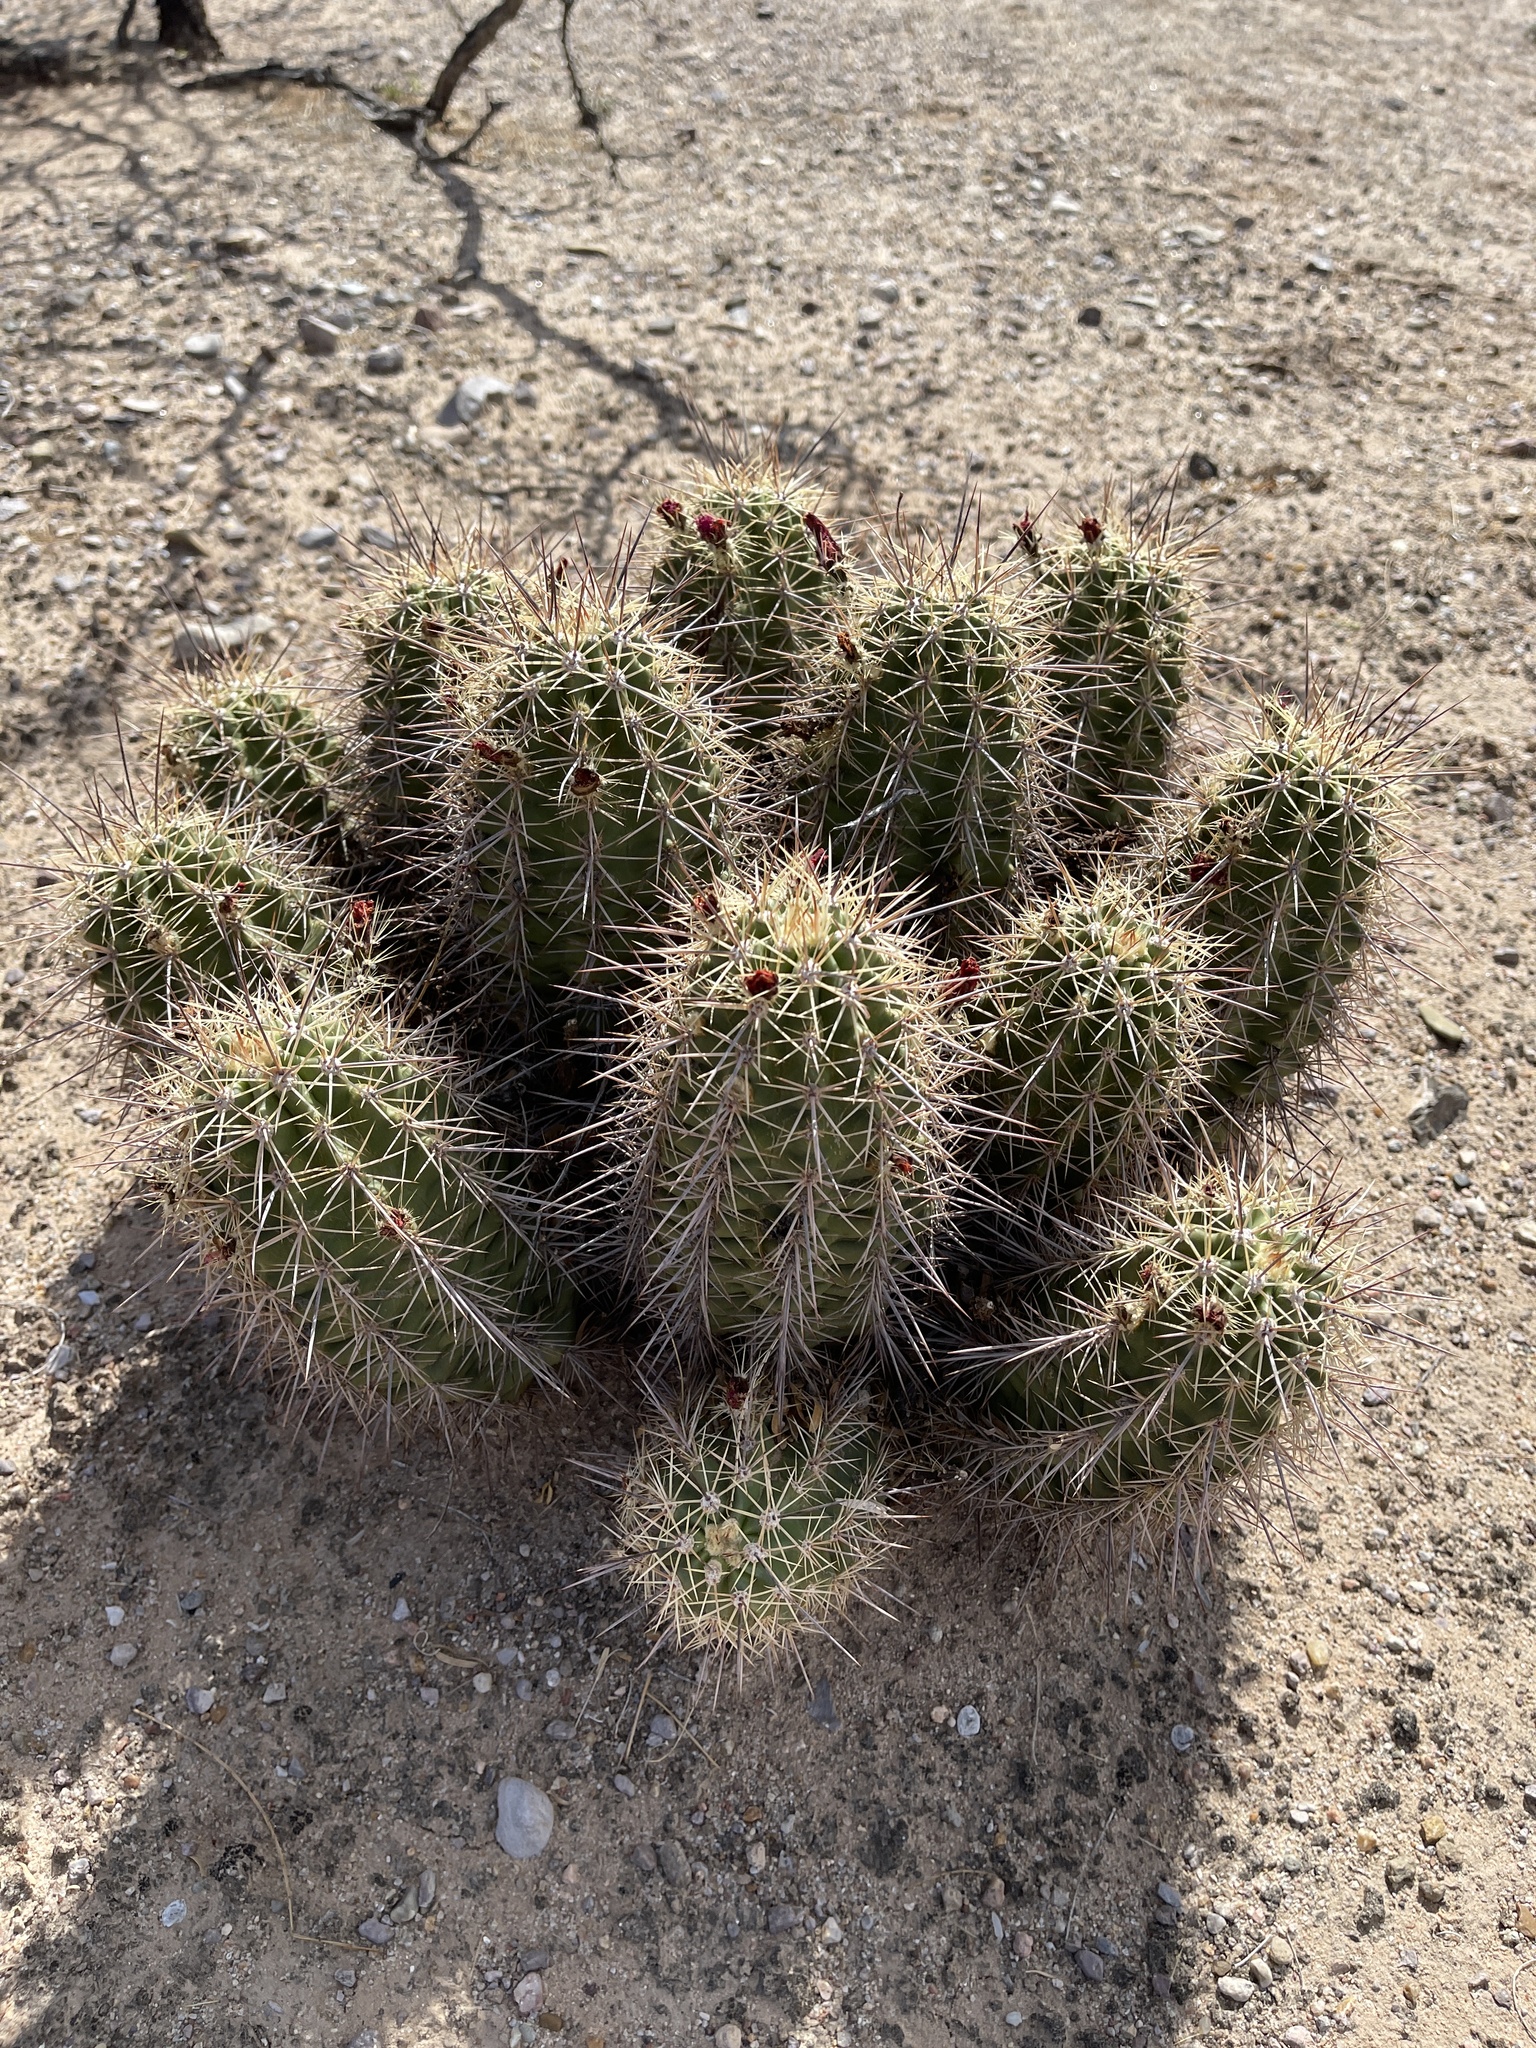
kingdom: Plantae
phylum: Tracheophyta
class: Magnoliopsida
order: Caryophyllales
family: Cactaceae
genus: Echinocereus
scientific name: Echinocereus coccineus
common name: Scarlet hedgehog cactus
